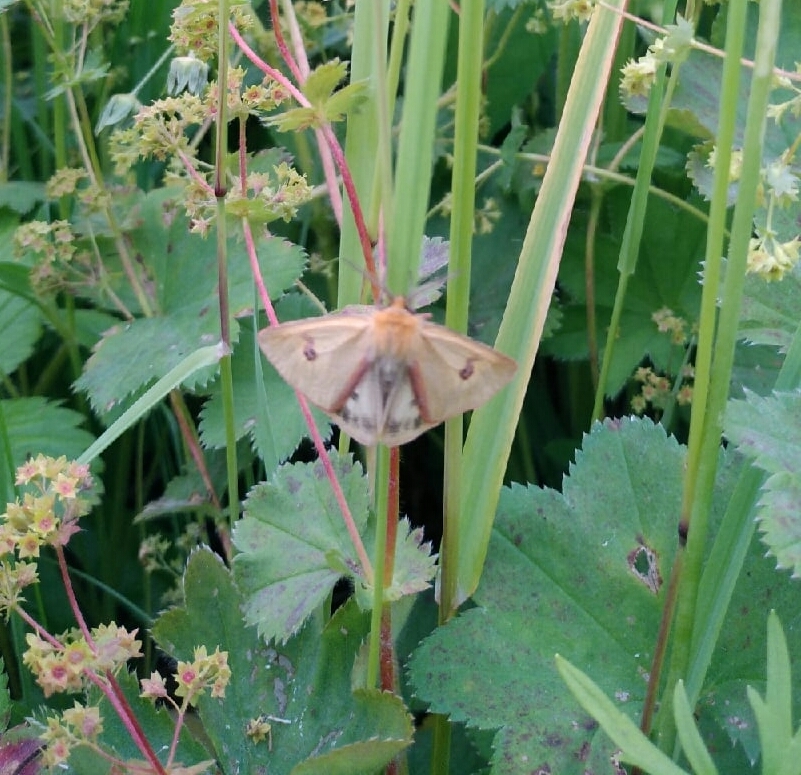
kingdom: Animalia
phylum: Arthropoda
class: Insecta
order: Lepidoptera
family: Erebidae
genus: Diacrisia
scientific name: Diacrisia sannio
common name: Clouded buff
